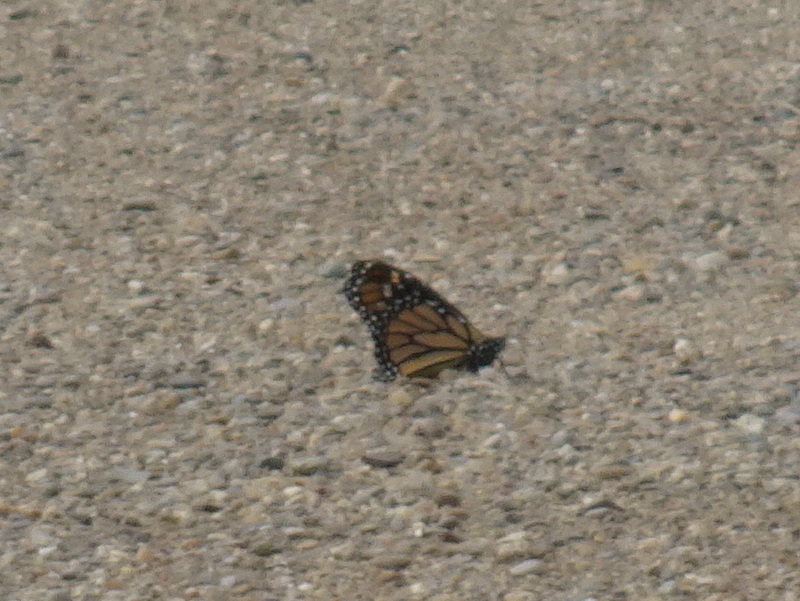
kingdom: Animalia
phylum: Arthropoda
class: Insecta
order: Lepidoptera
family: Nymphalidae
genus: Danaus
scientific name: Danaus plexippus
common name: Monarch
